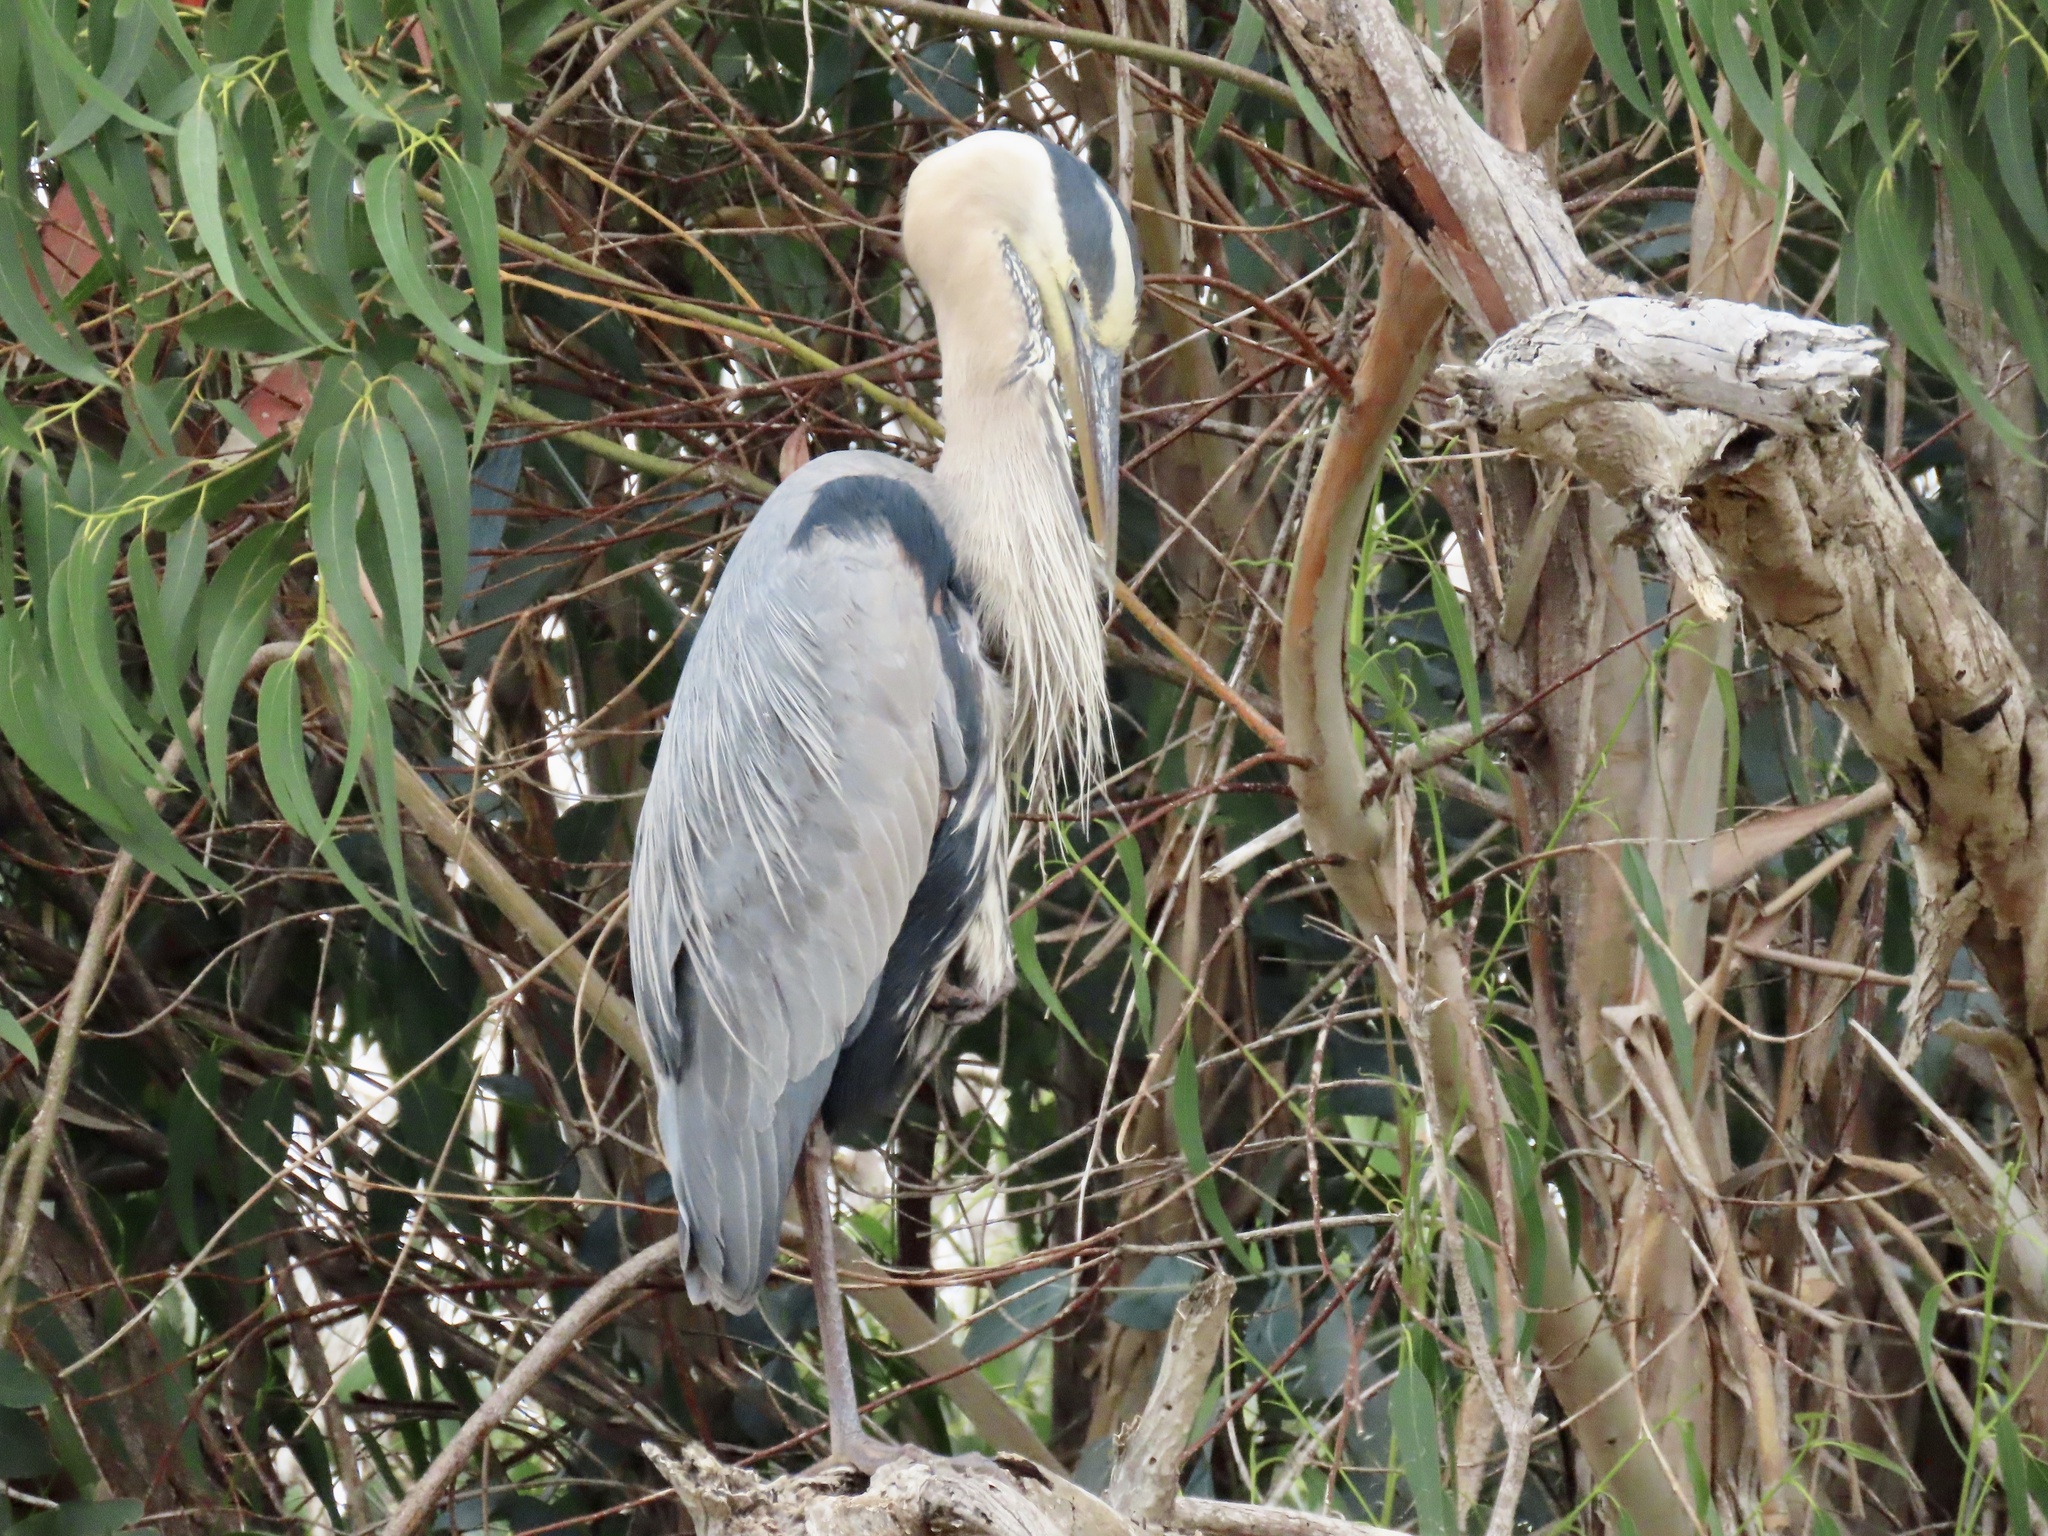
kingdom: Animalia
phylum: Chordata
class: Aves
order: Pelecaniformes
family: Ardeidae
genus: Ardea
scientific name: Ardea herodias
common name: Great blue heron
